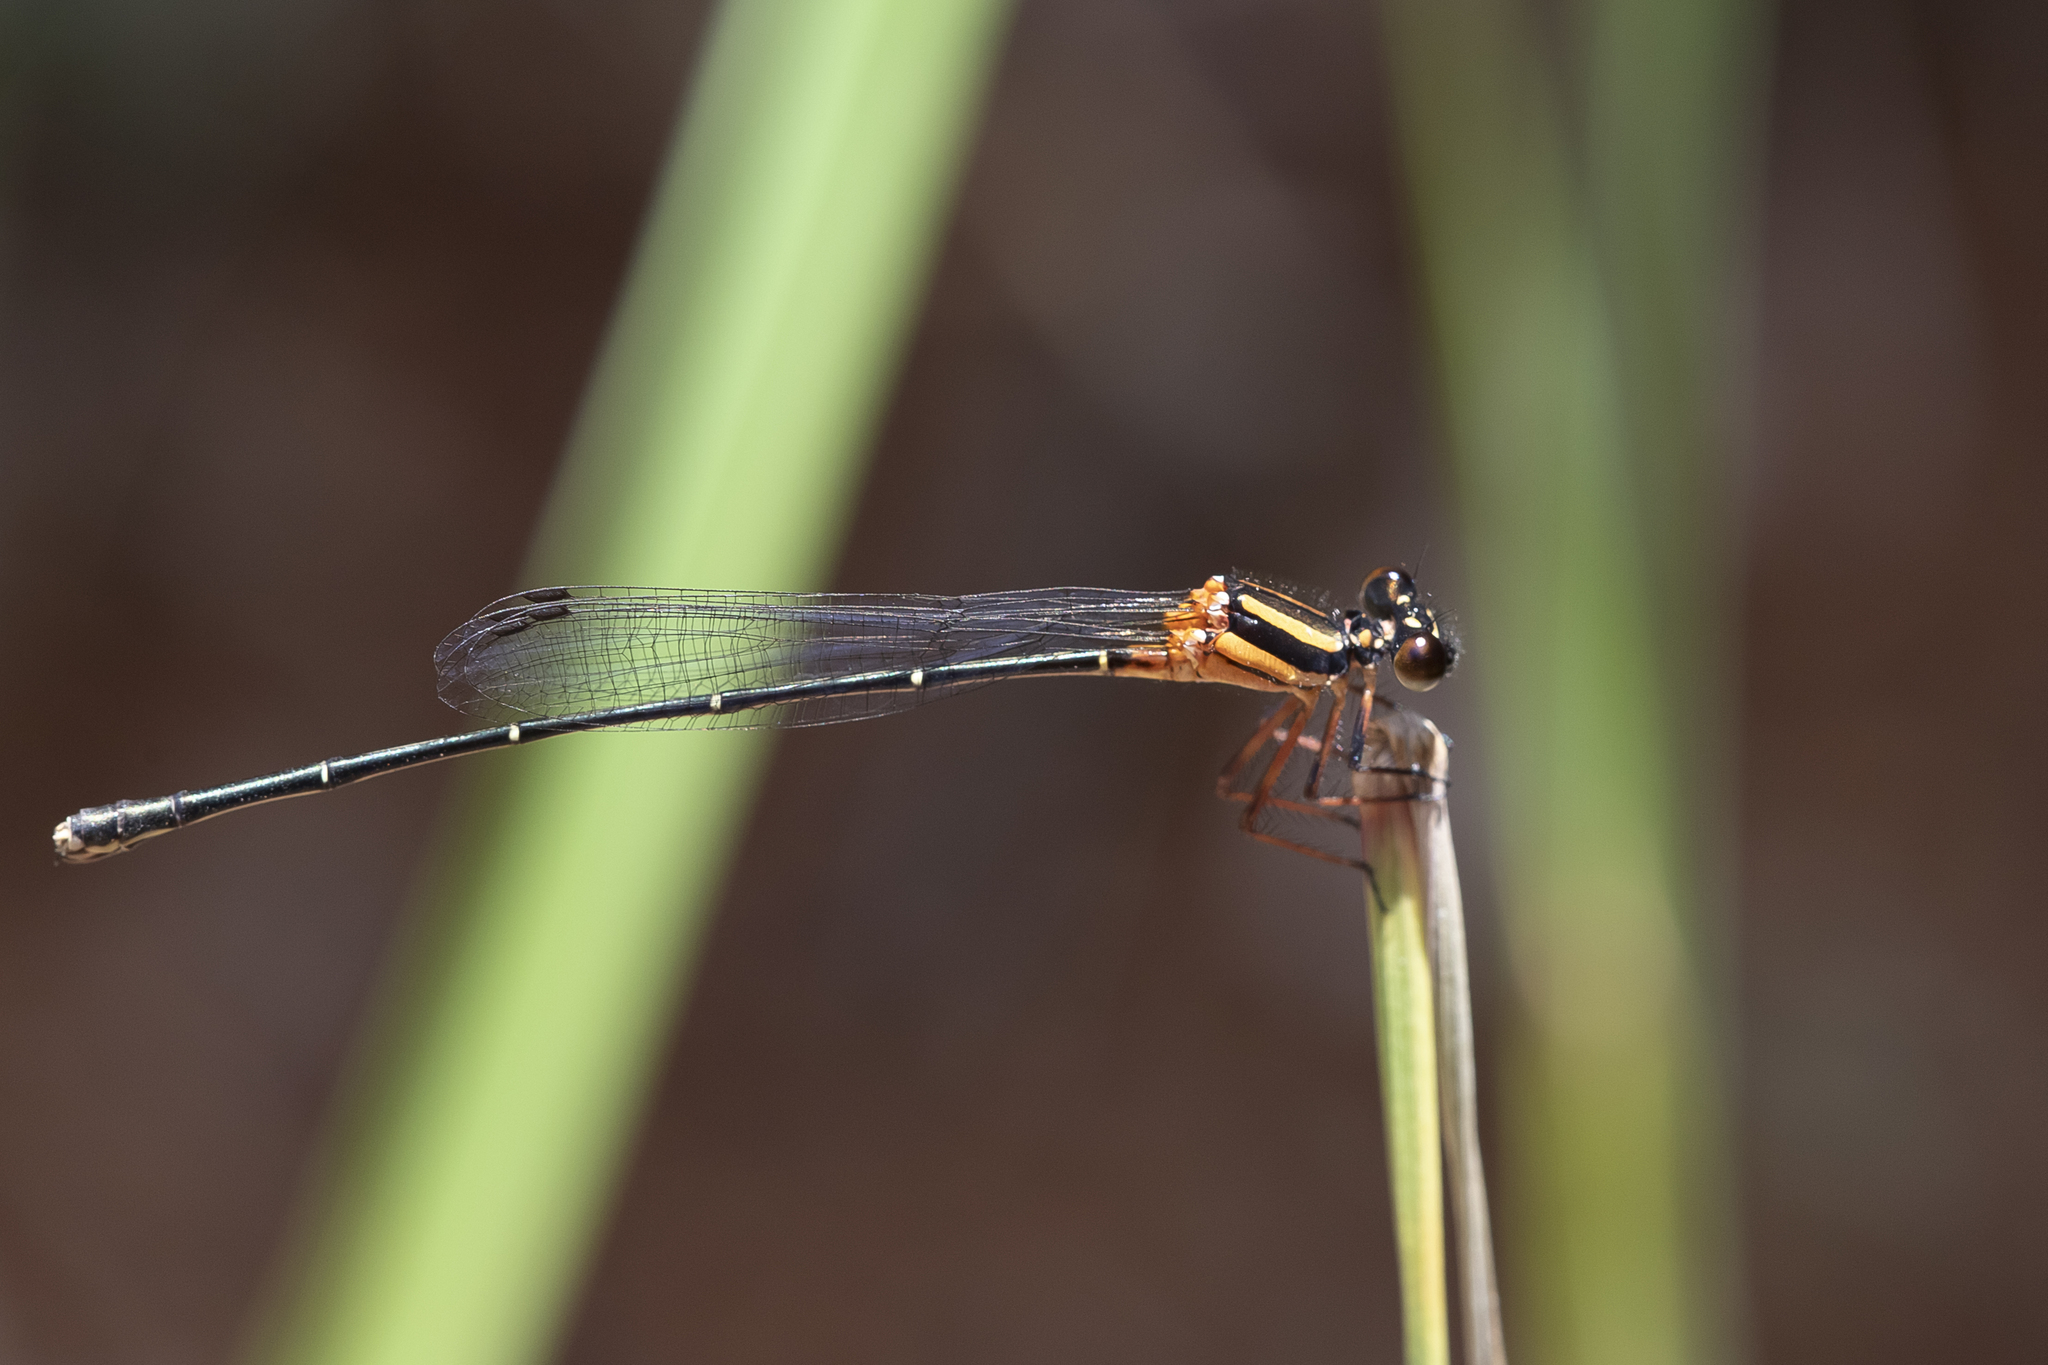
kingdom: Animalia
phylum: Arthropoda
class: Insecta
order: Odonata
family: Platycnemididae
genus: Nososticta
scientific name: Nososticta solida
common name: Orange threadtail
